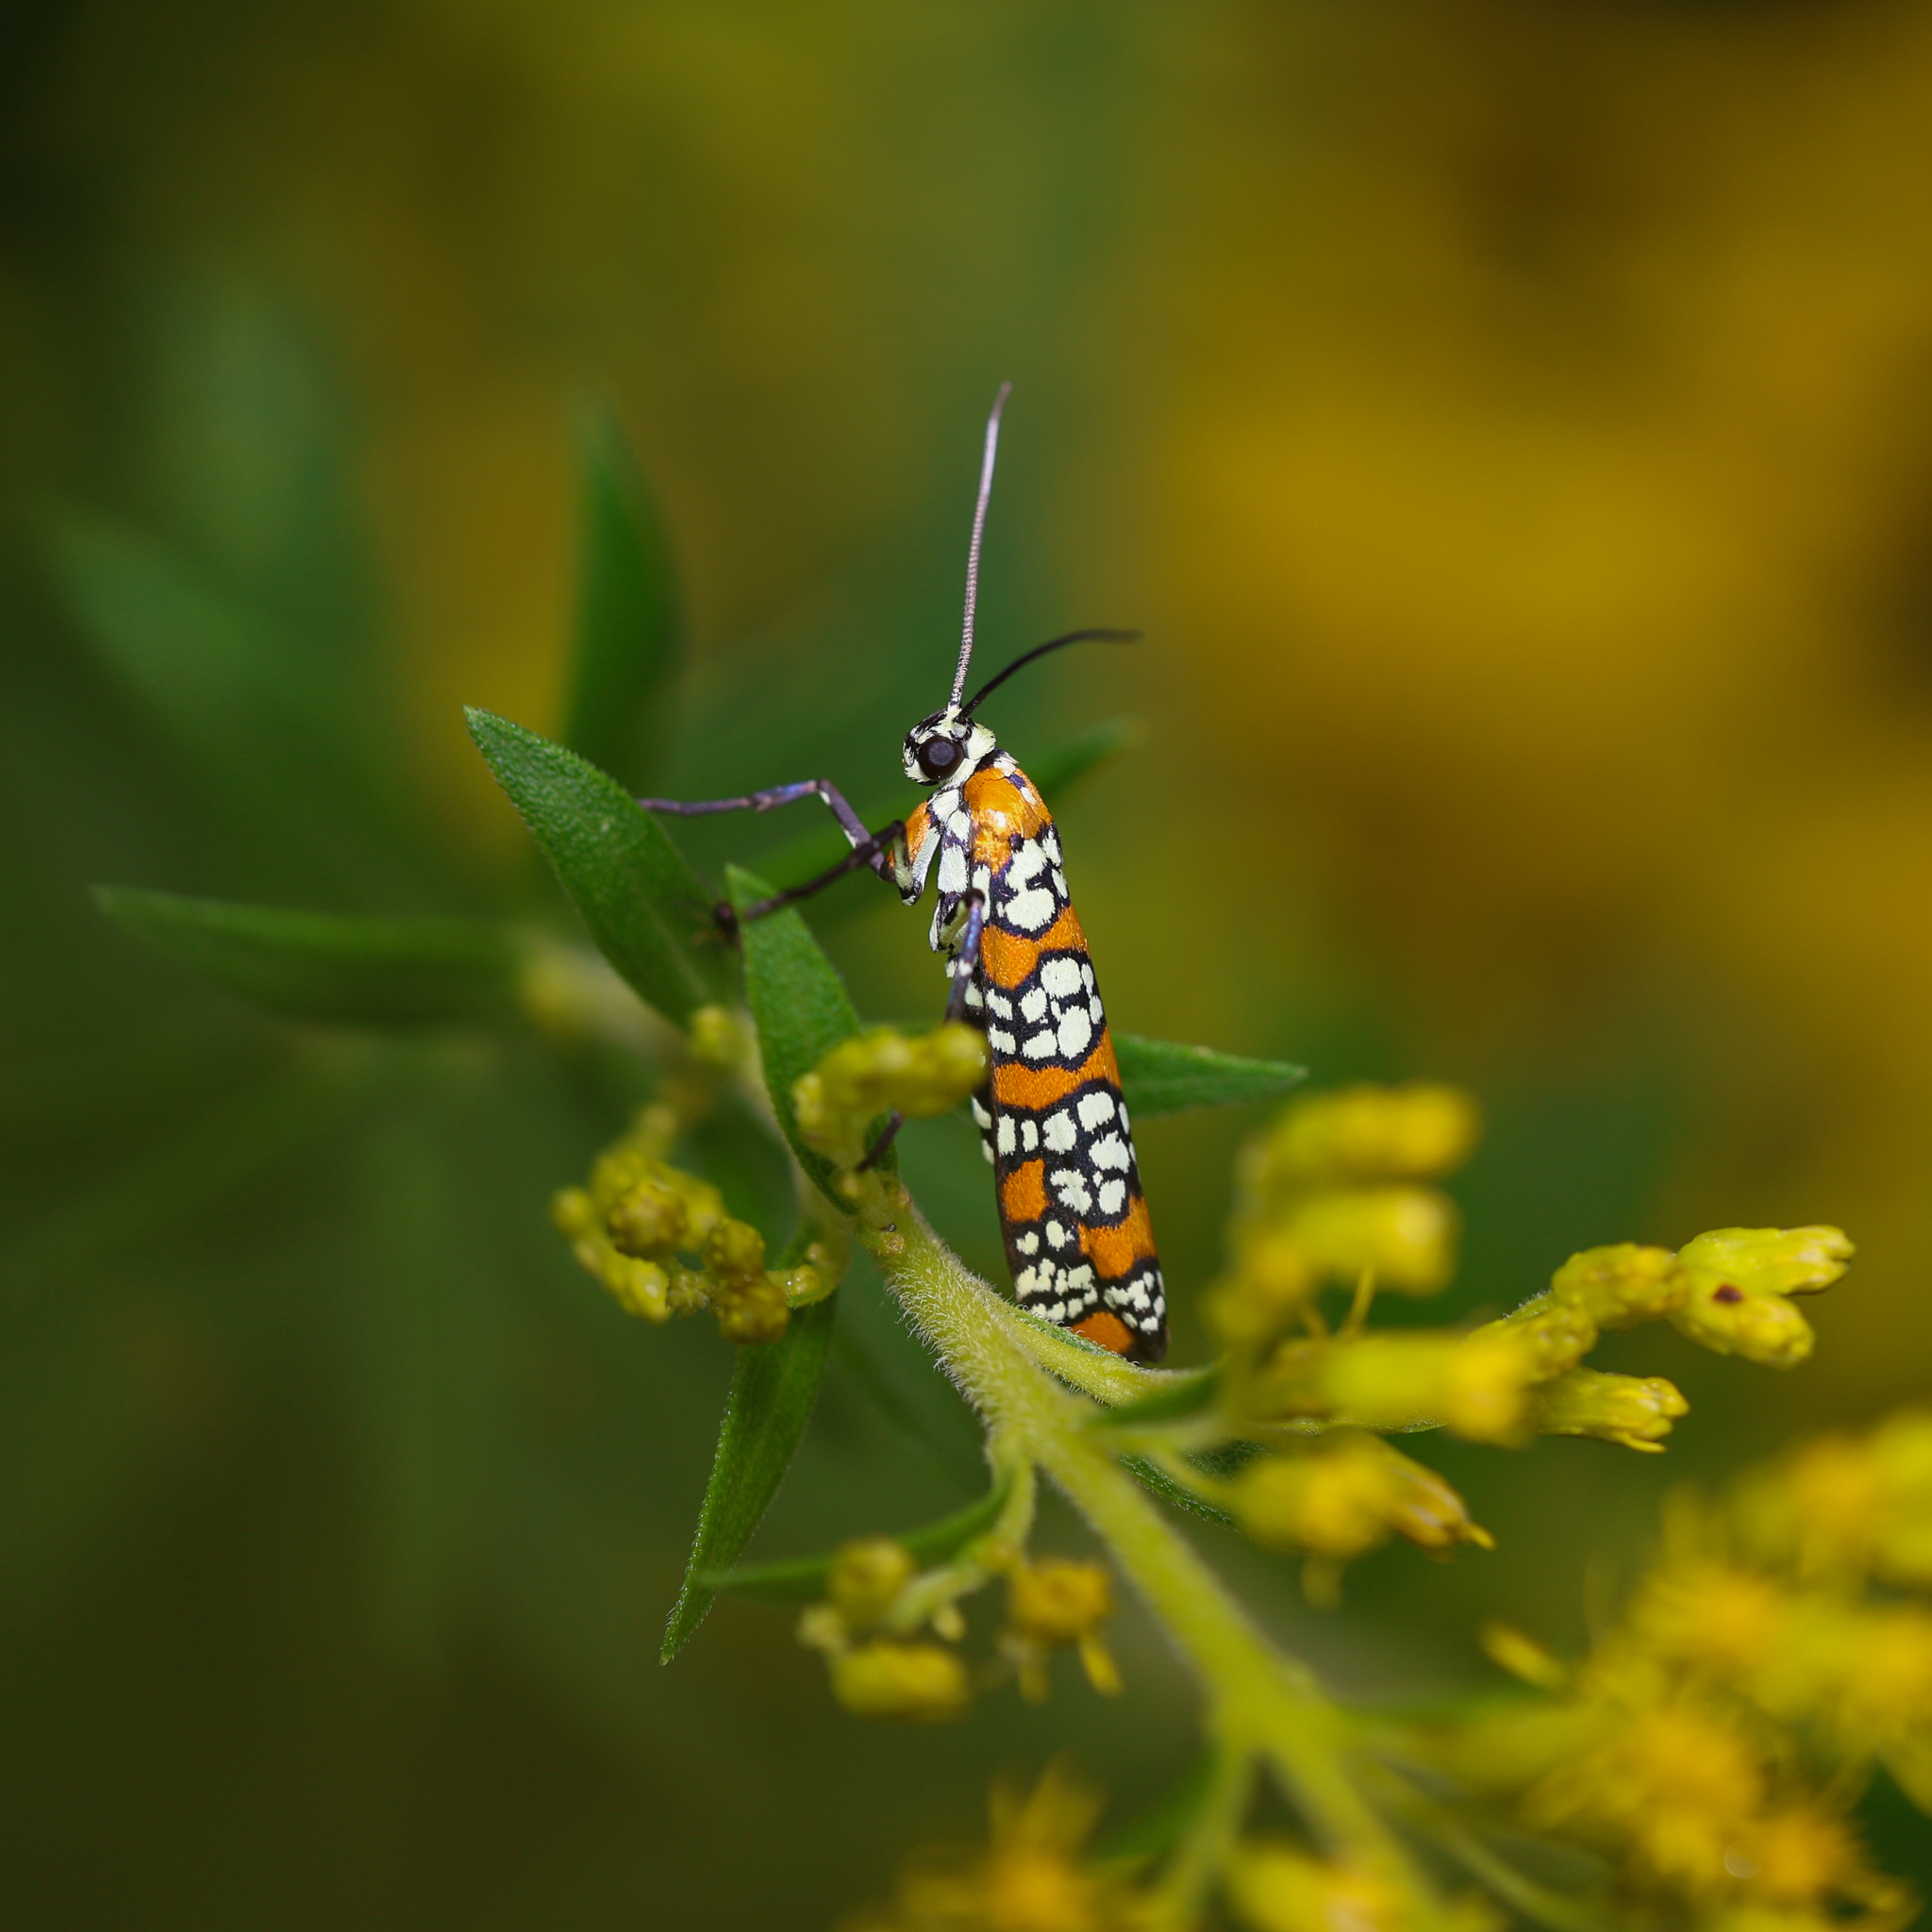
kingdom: Animalia
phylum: Arthropoda
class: Insecta
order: Lepidoptera
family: Attevidae
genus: Atteva
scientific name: Atteva punctella
